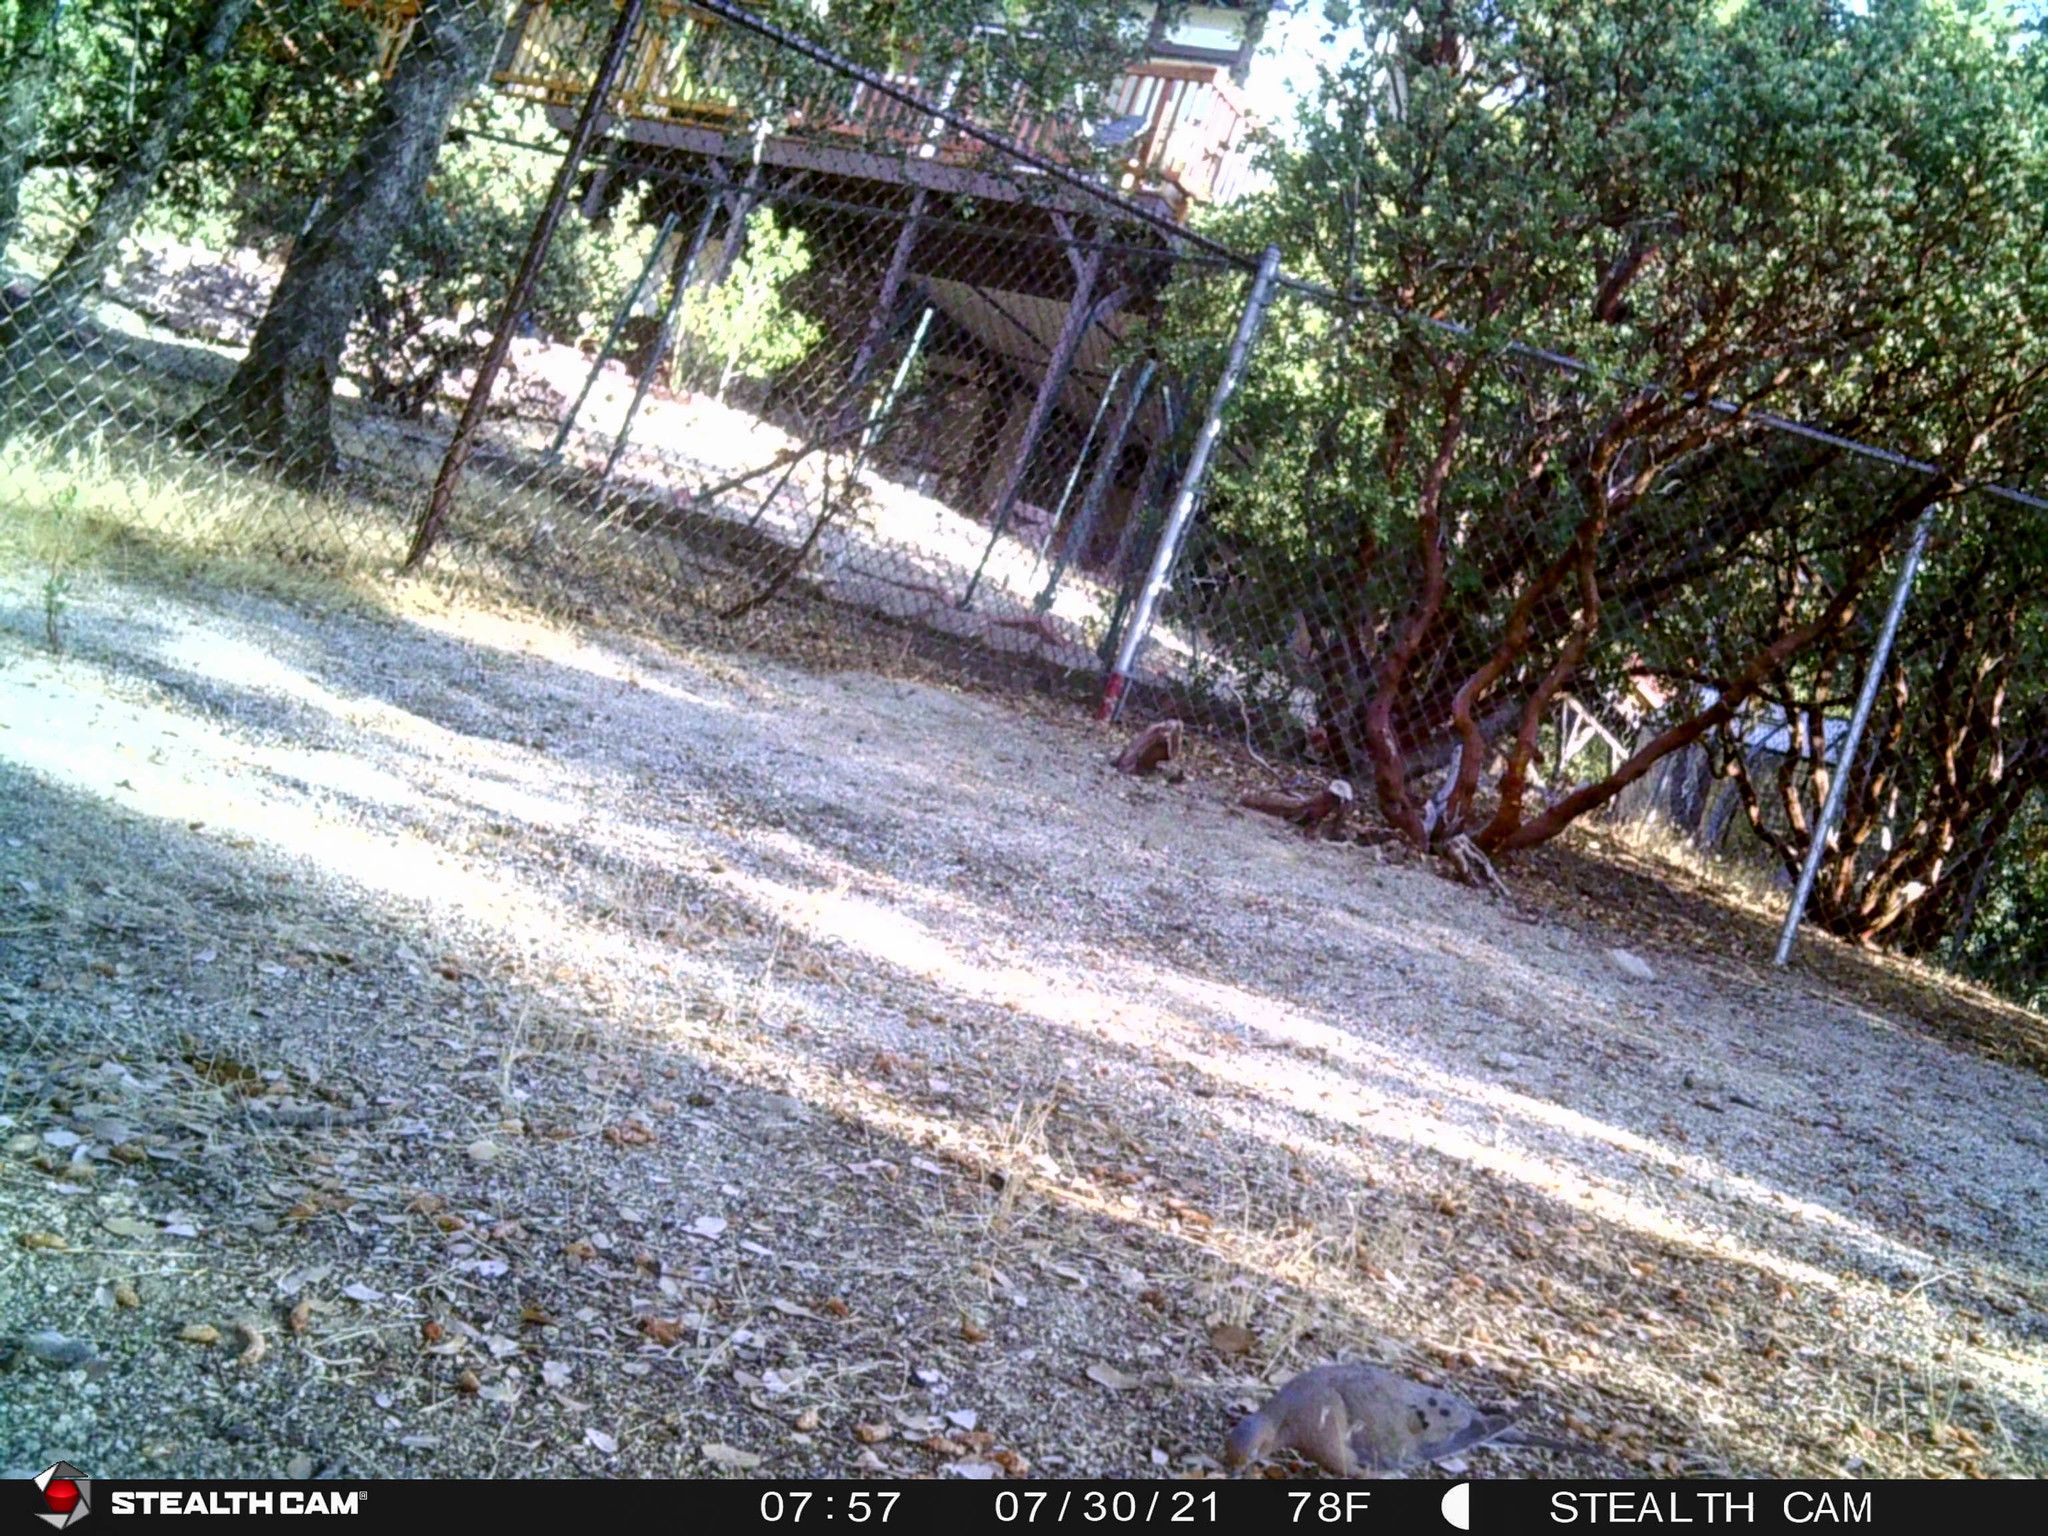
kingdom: Animalia
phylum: Chordata
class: Aves
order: Columbiformes
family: Columbidae
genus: Zenaida
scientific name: Zenaida macroura
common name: Mourning dove
